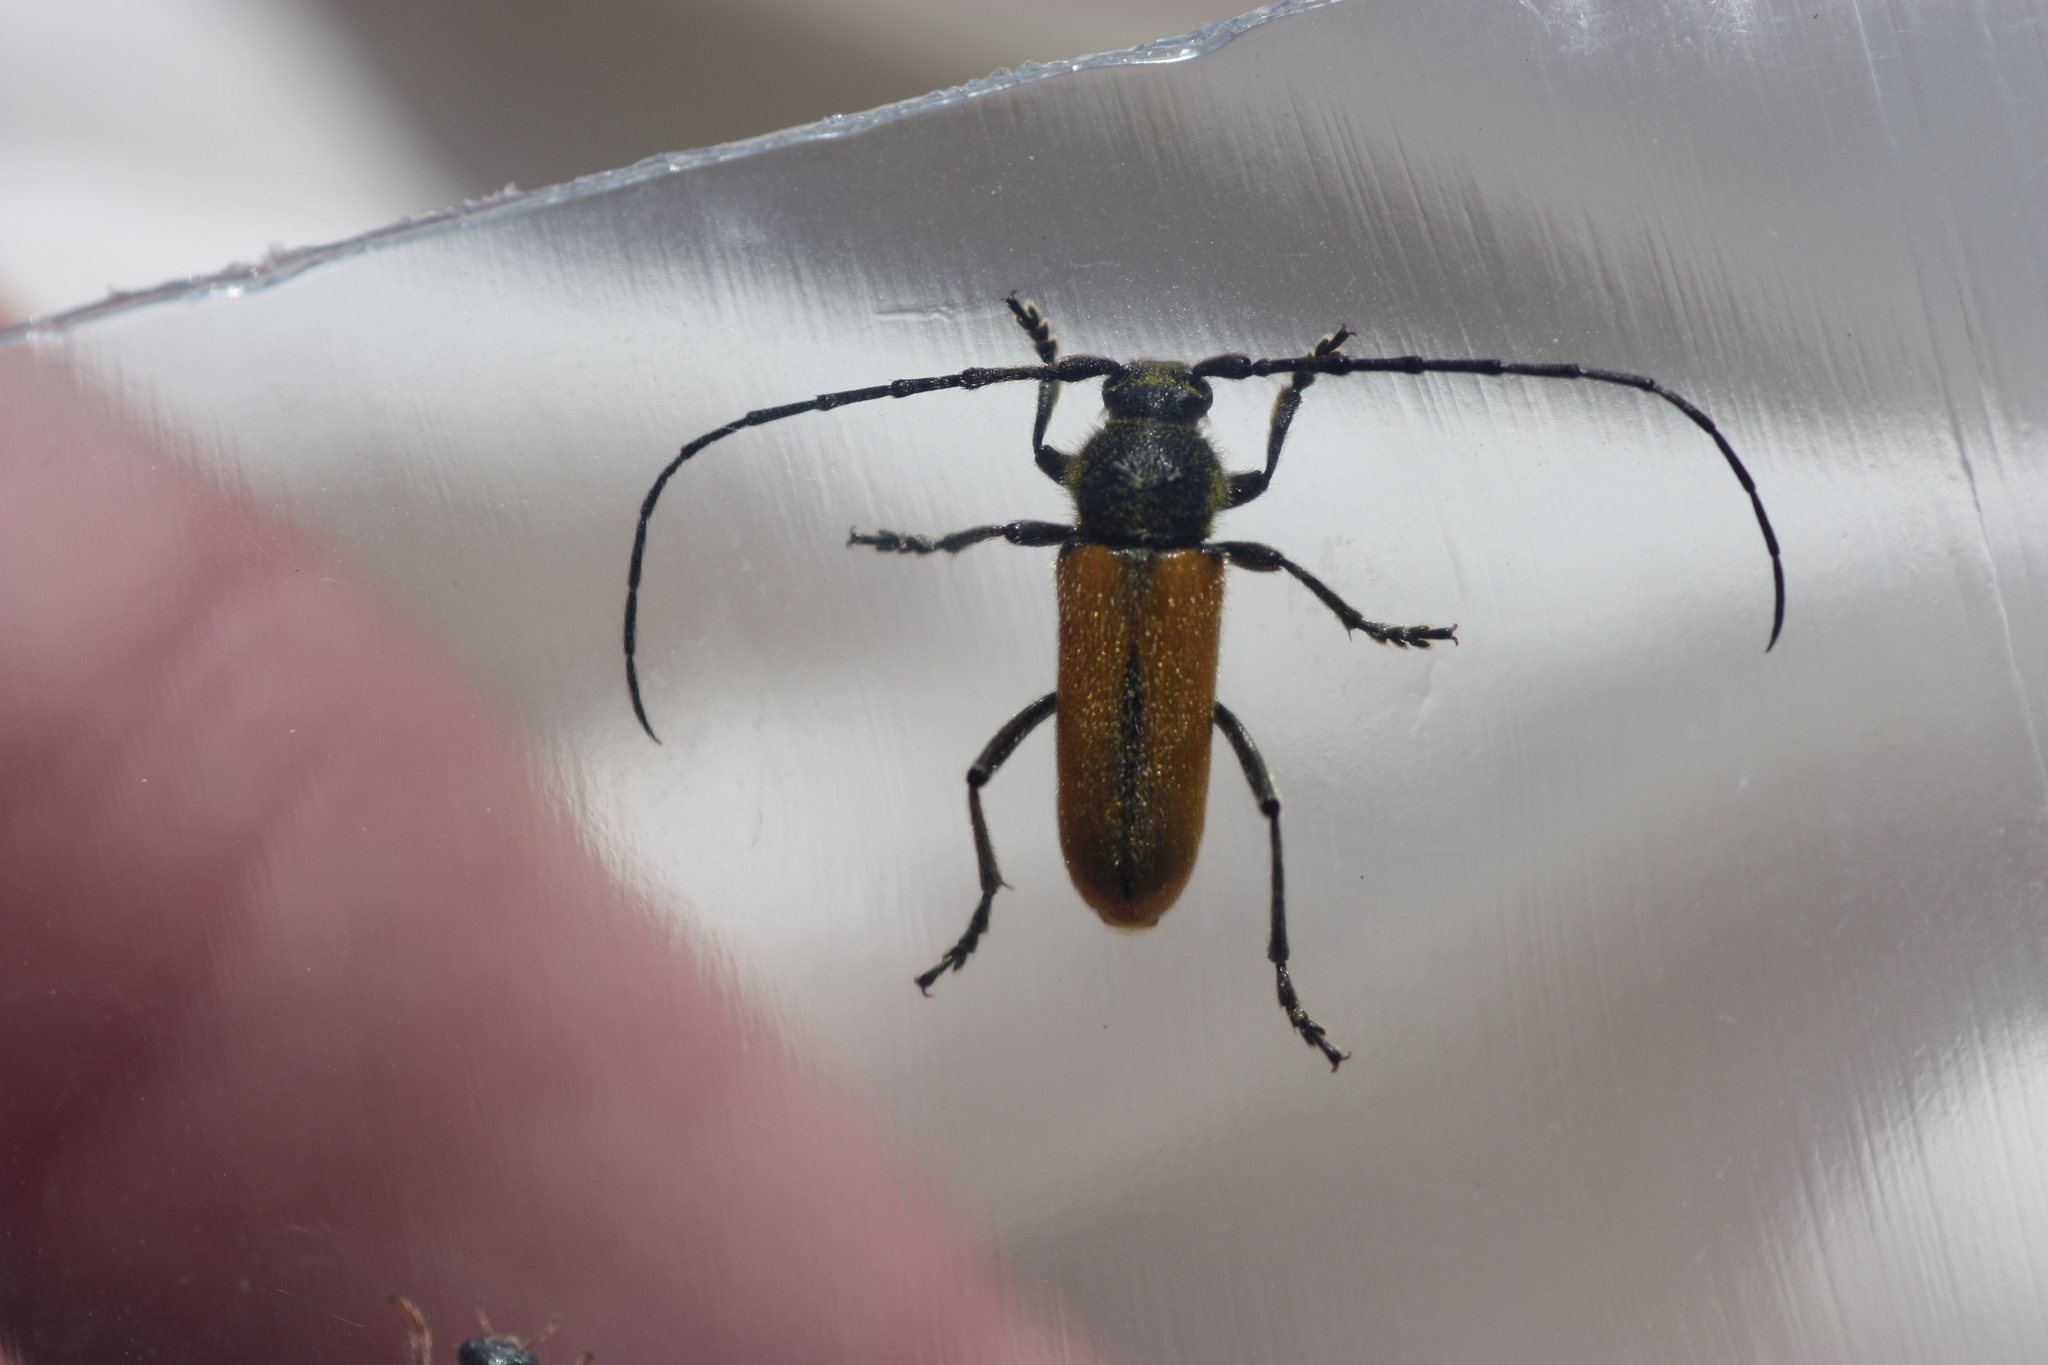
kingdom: Animalia
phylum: Arthropoda
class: Insecta
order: Coleoptera
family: Cerambycidae
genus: Crossidius
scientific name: Crossidius pulchellus
